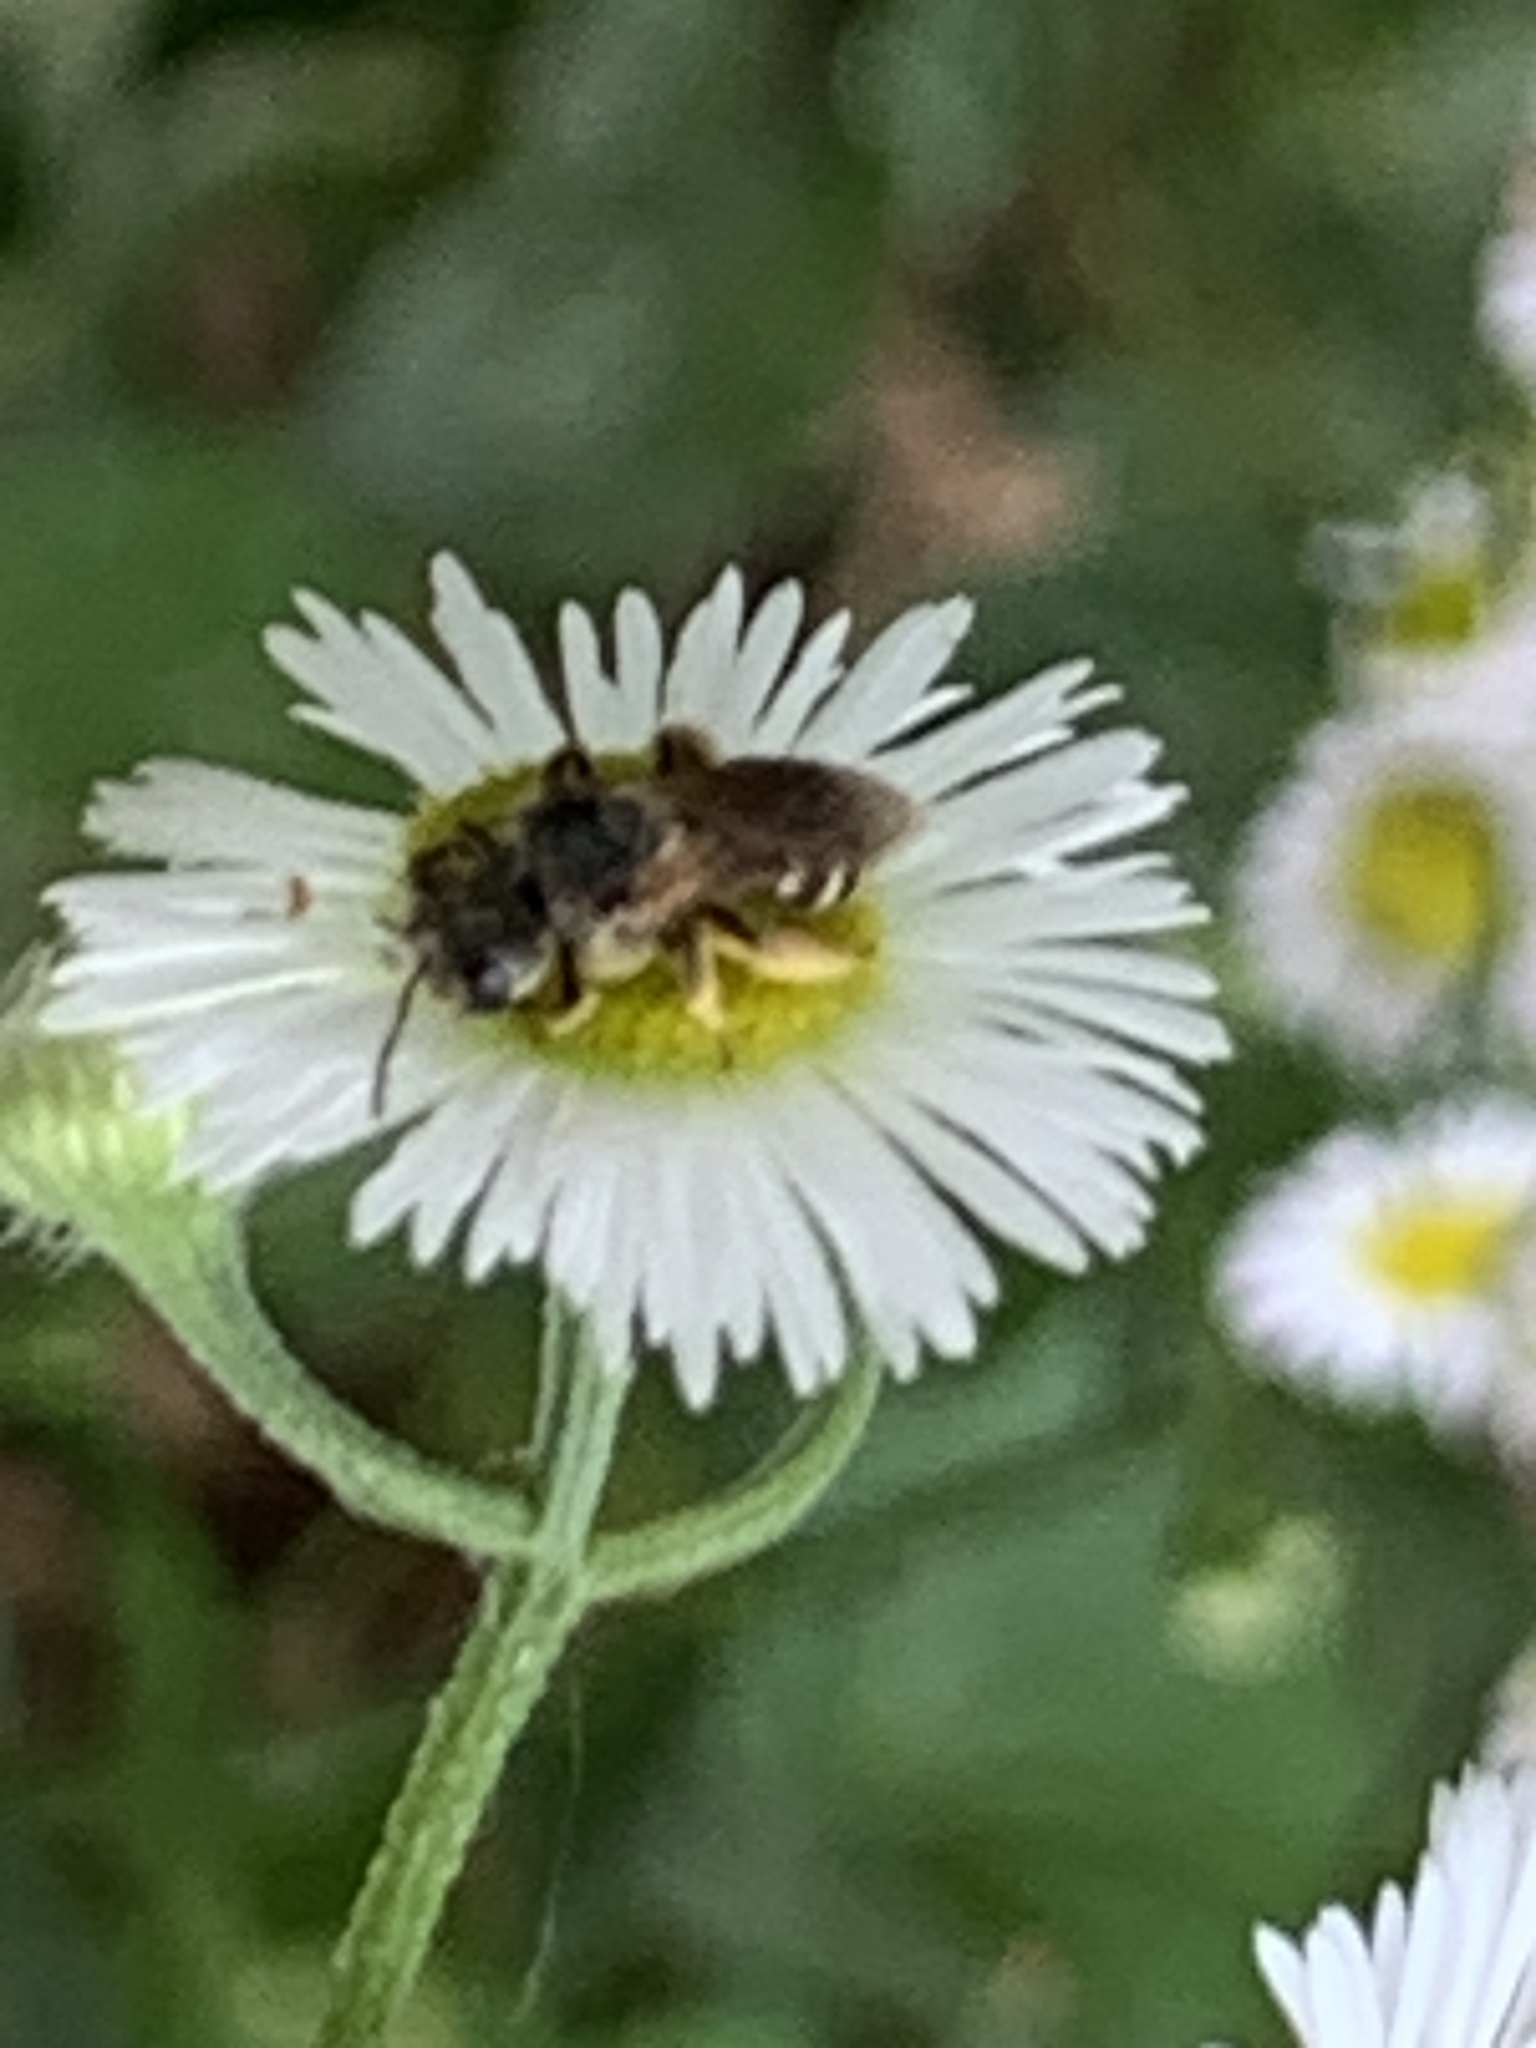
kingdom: Animalia
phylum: Arthropoda
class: Insecta
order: Hymenoptera
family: Halictidae
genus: Halictus
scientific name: Halictus ligatus
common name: Ligated furrow bee
